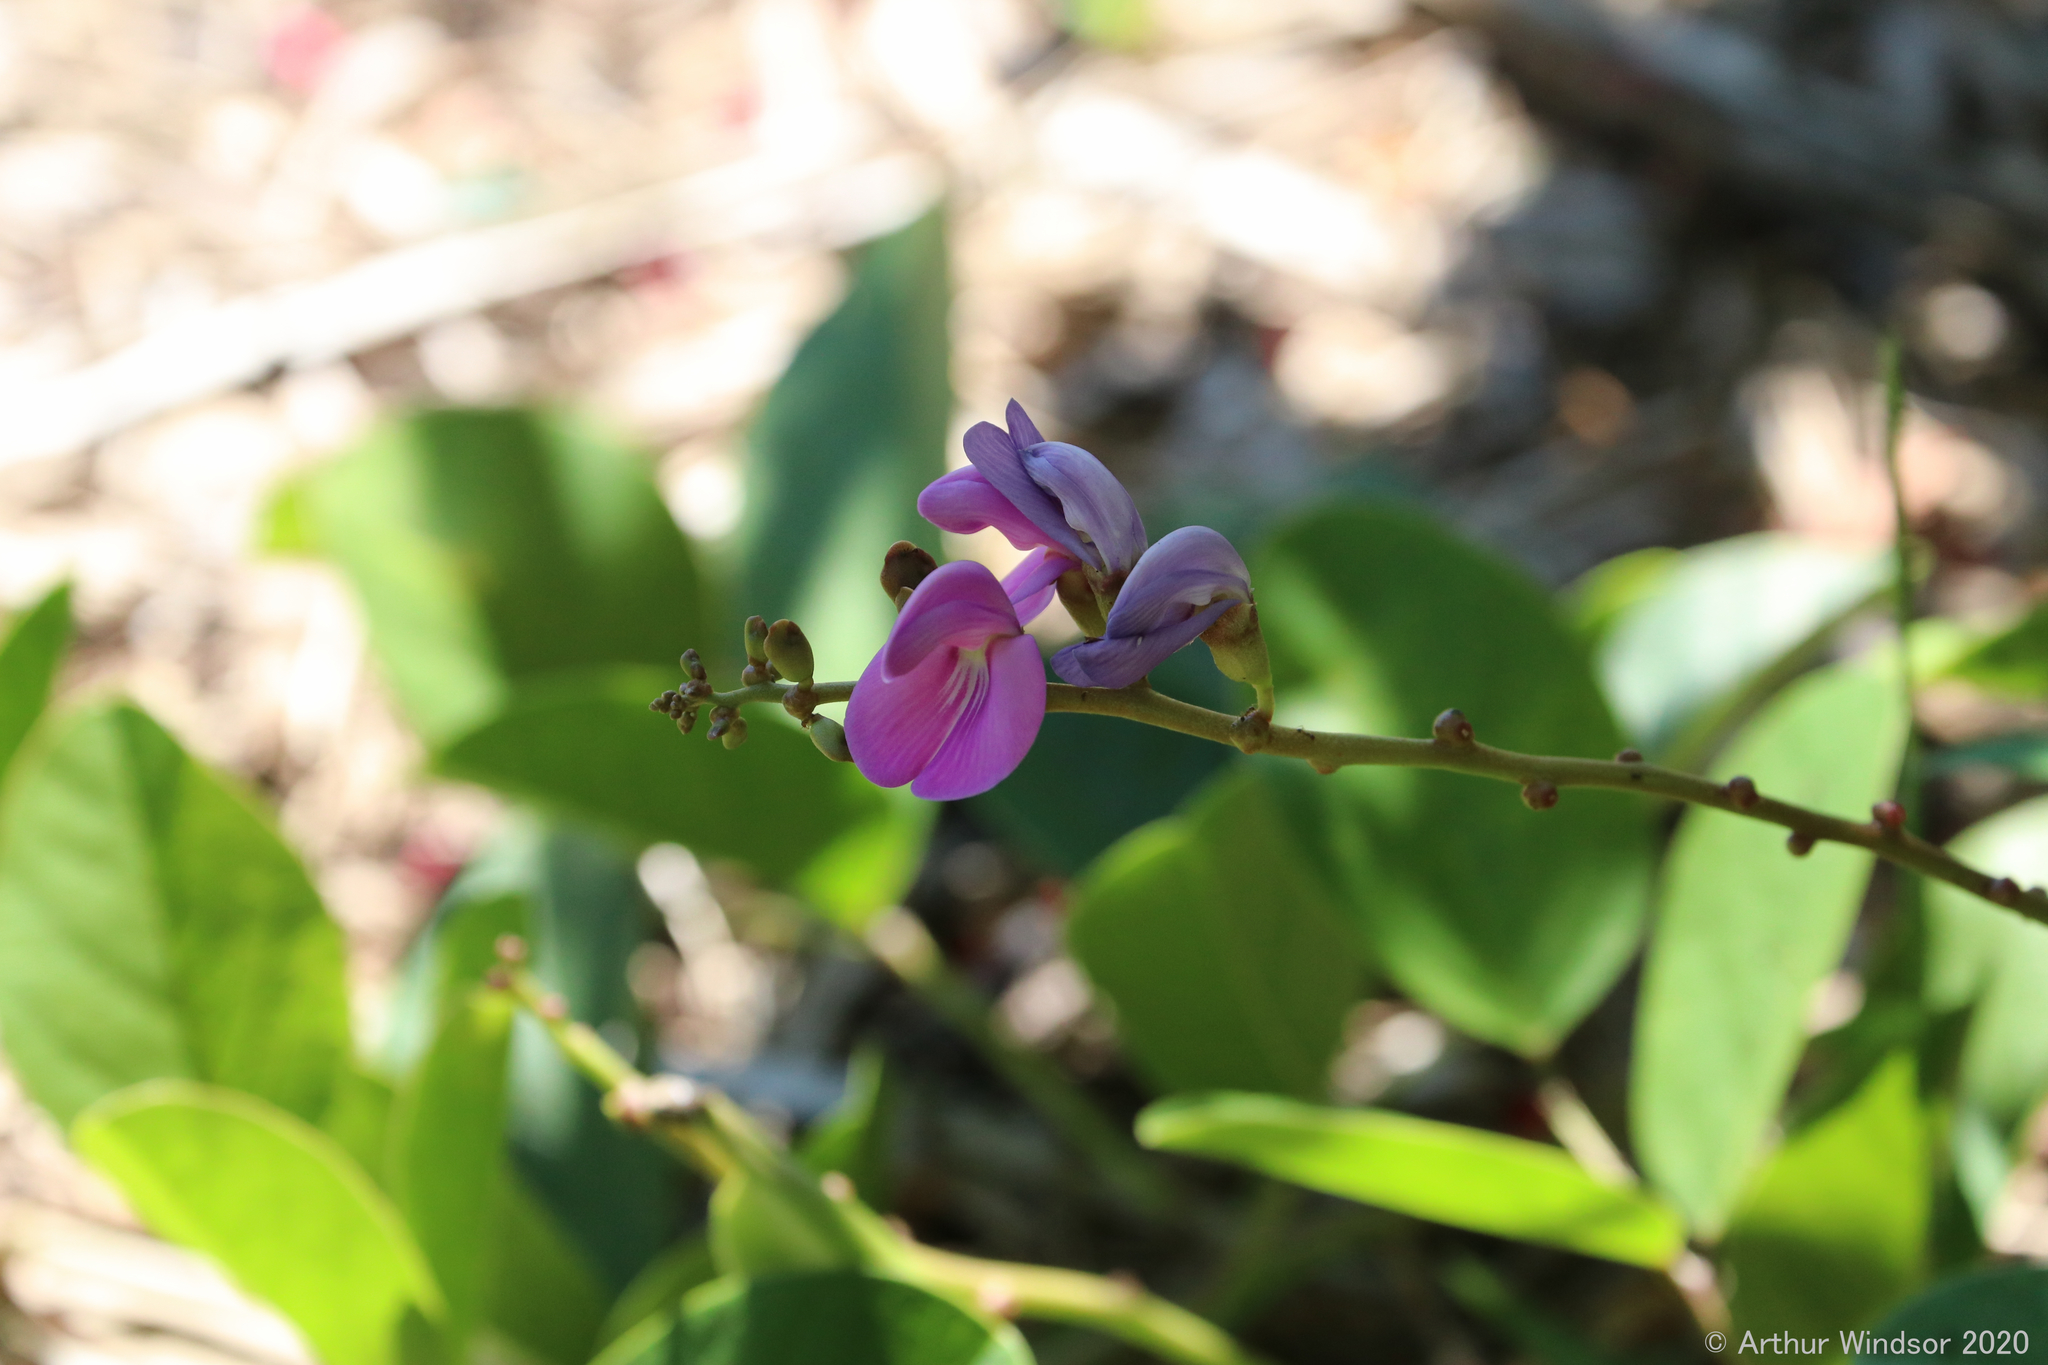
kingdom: Plantae
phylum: Tracheophyta
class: Magnoliopsida
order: Fabales
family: Fabaceae
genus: Canavalia
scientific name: Canavalia rosea
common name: Beach-bean
